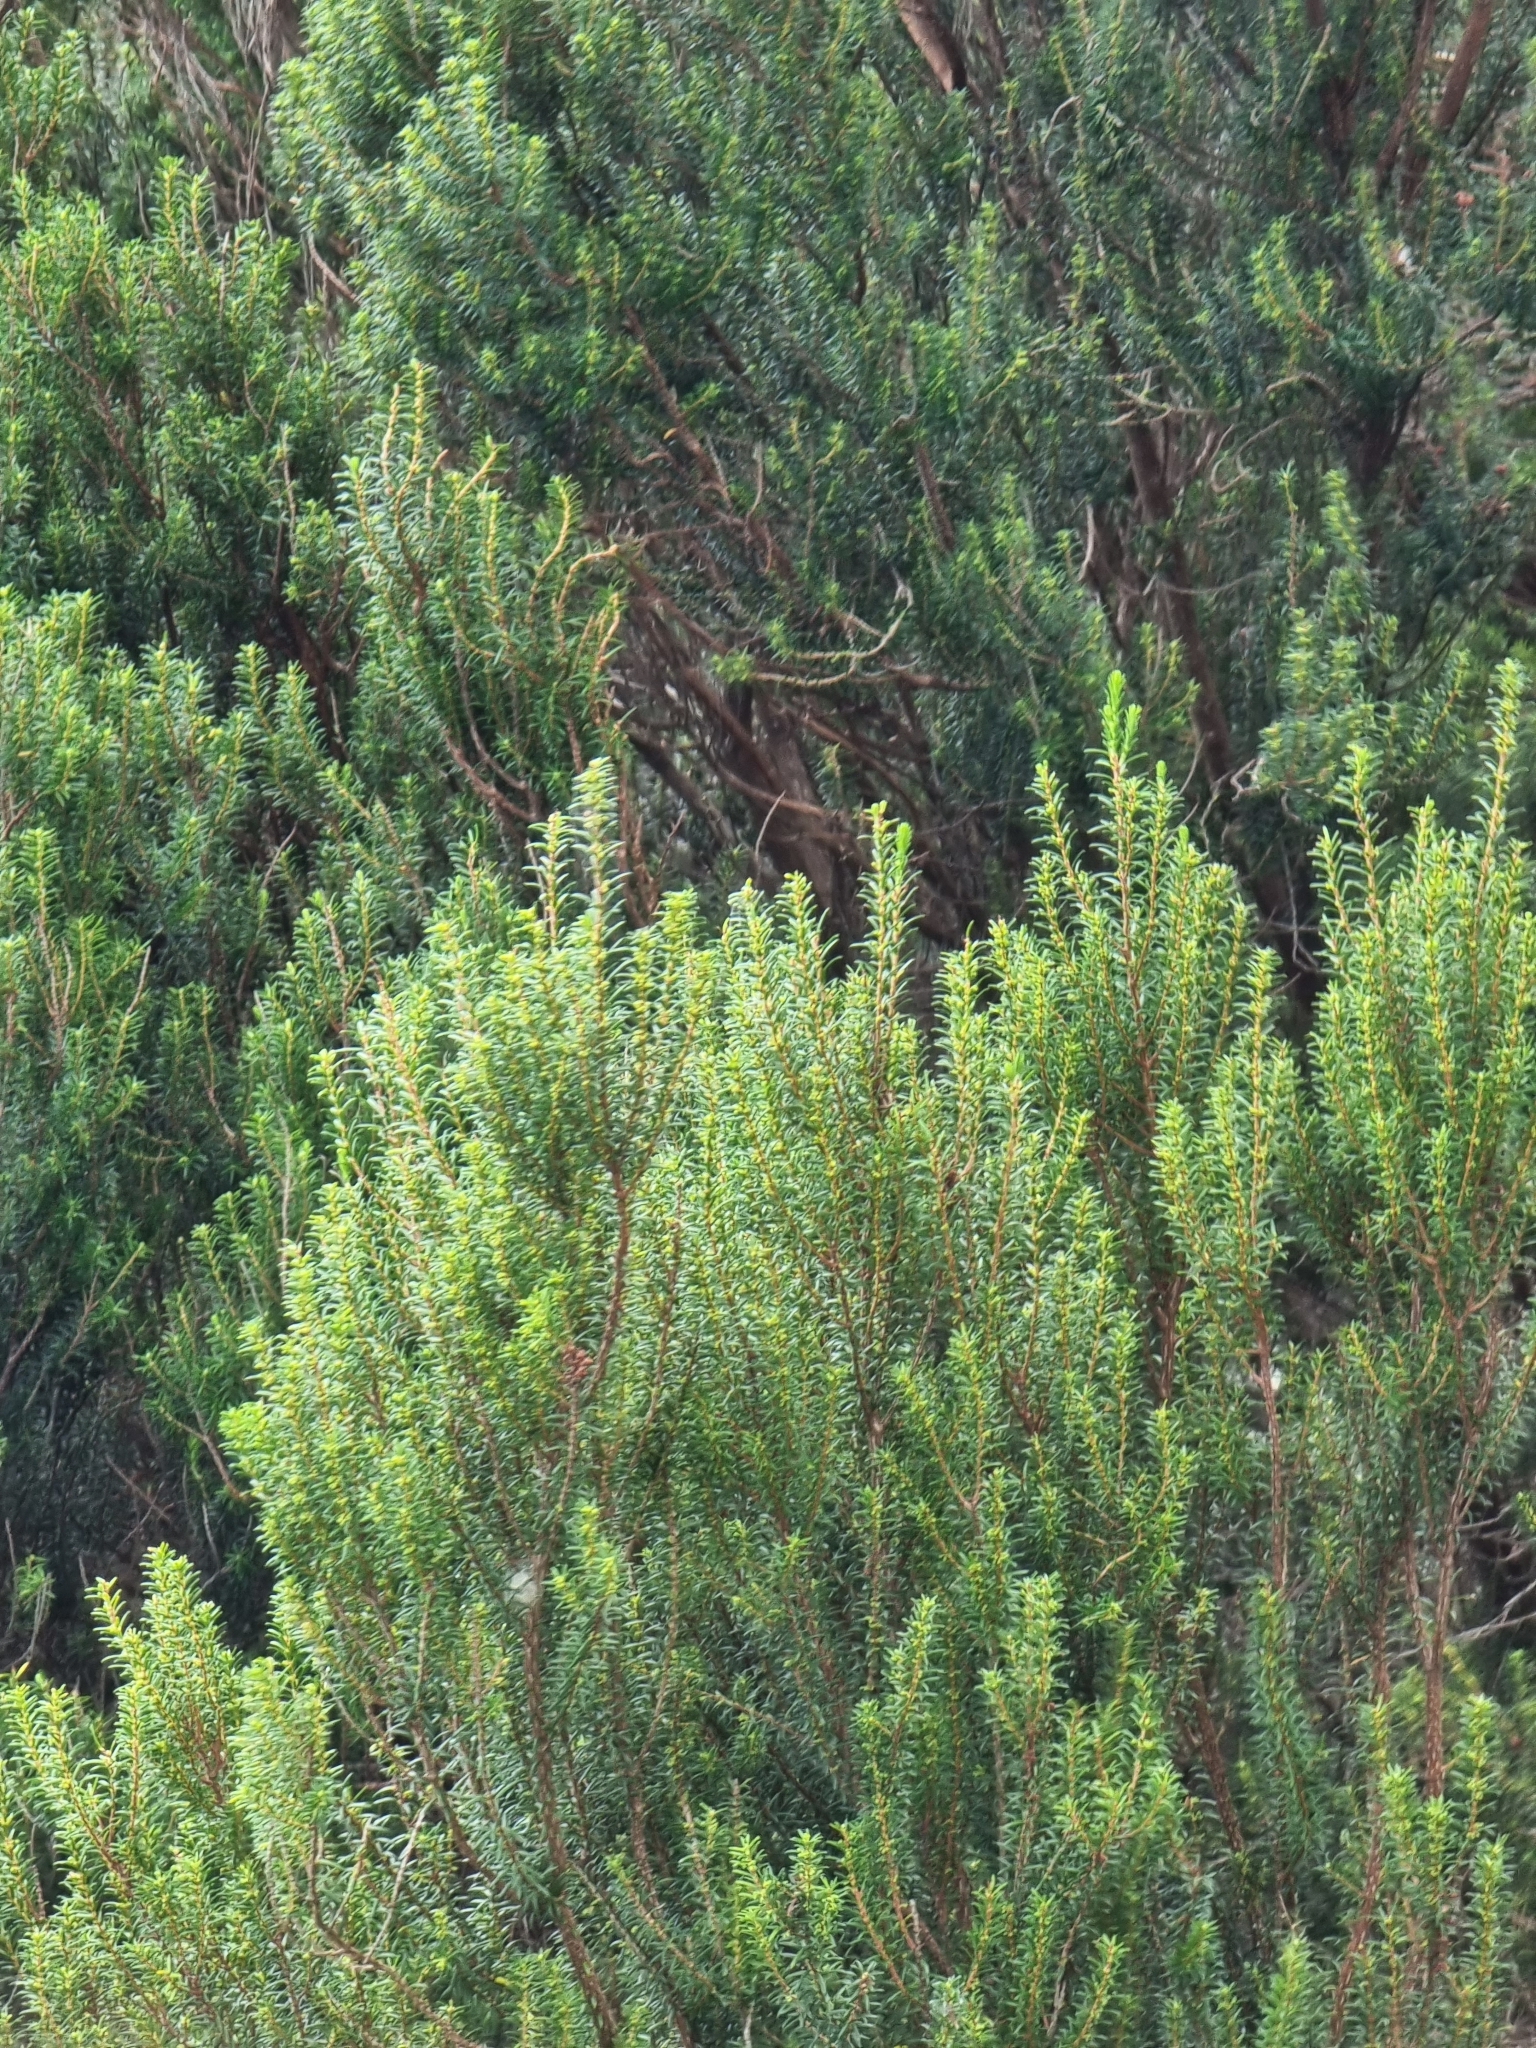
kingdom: Plantae
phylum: Tracheophyta
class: Magnoliopsida
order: Ericales
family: Ericaceae
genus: Erica
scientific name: Erica platycodon
